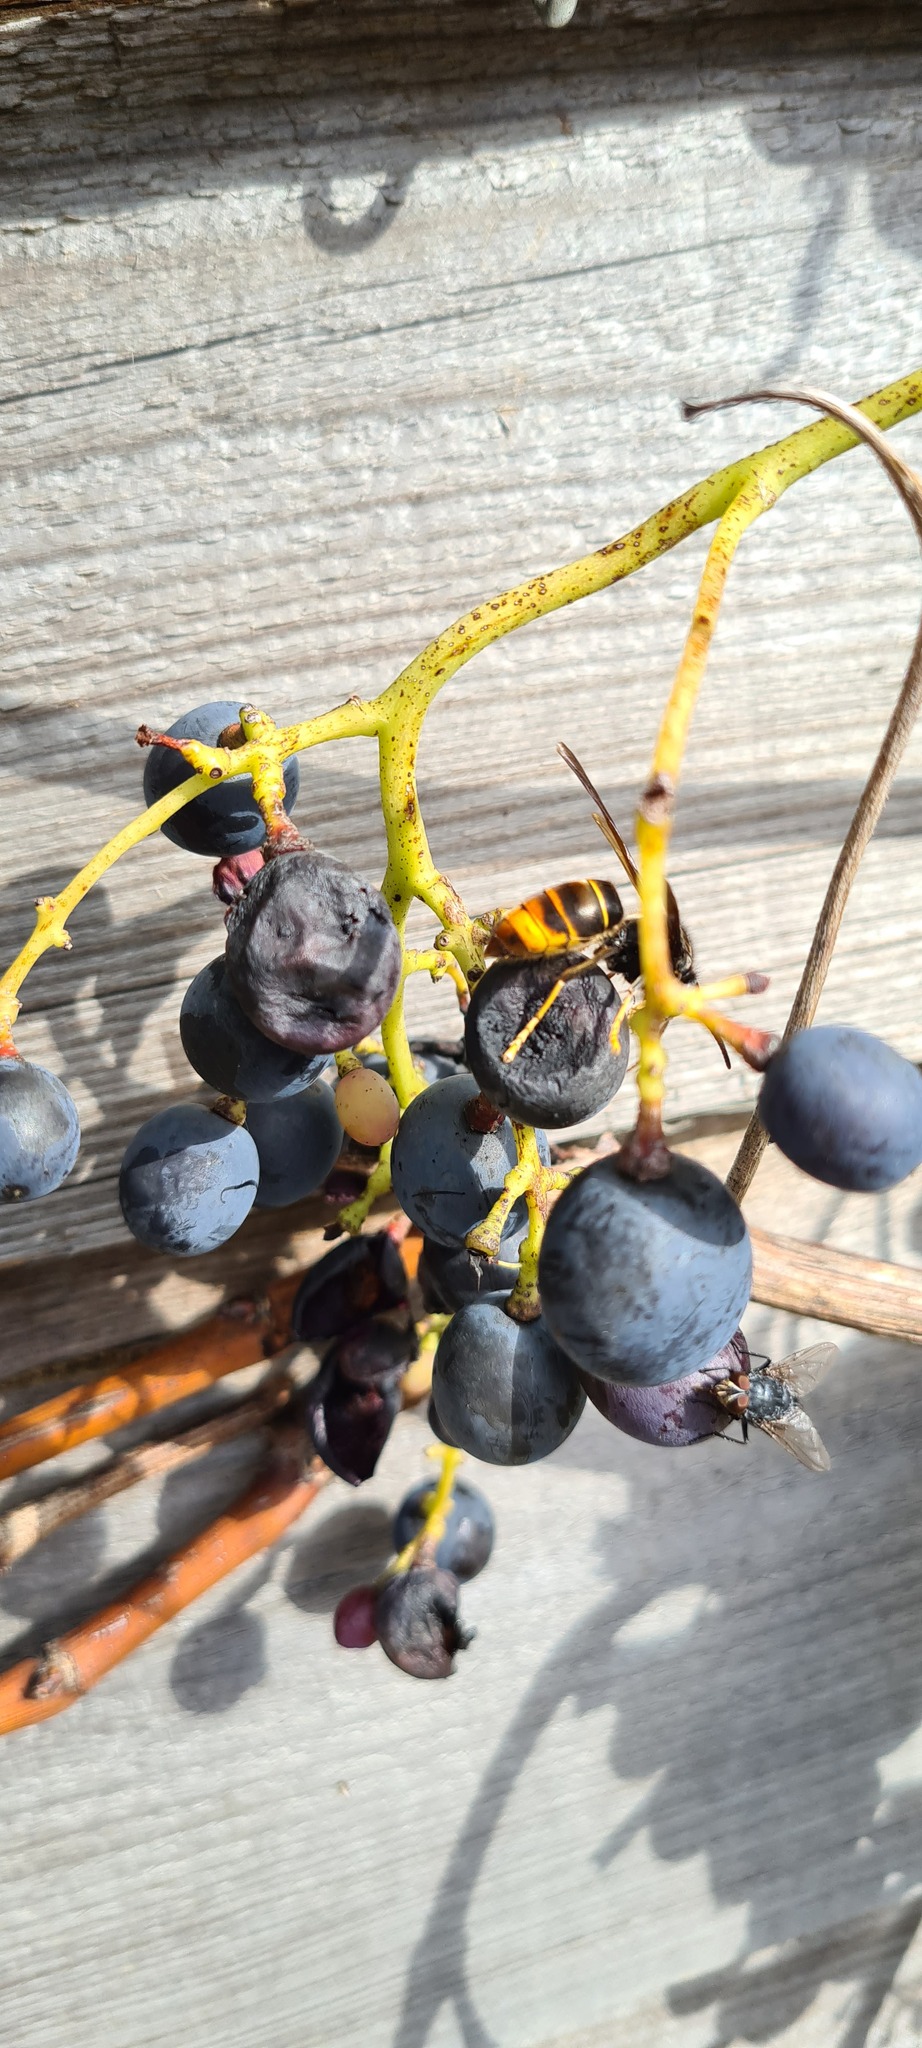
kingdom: Animalia
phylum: Arthropoda
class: Insecta
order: Hymenoptera
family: Vespidae
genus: Vespa
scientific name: Vespa velutina
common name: Asian hornet
